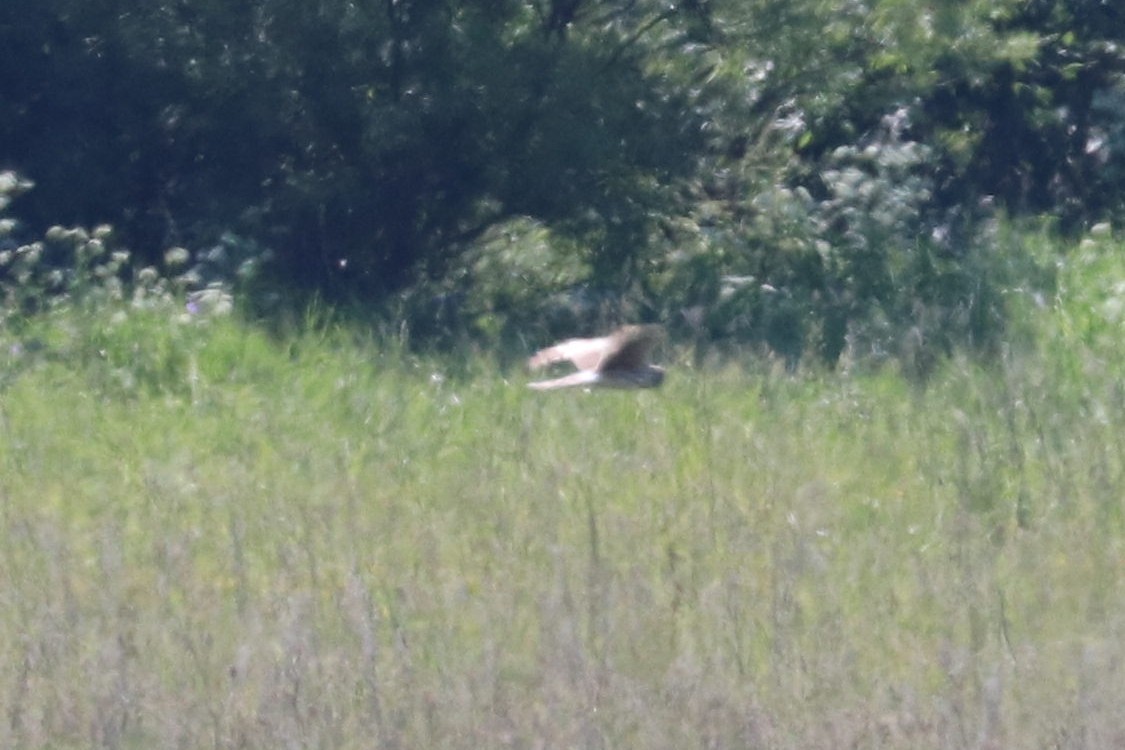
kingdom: Animalia
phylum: Chordata
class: Aves
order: Accipitriformes
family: Accipitridae
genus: Circus
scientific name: Circus cyaneus
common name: Hen harrier
